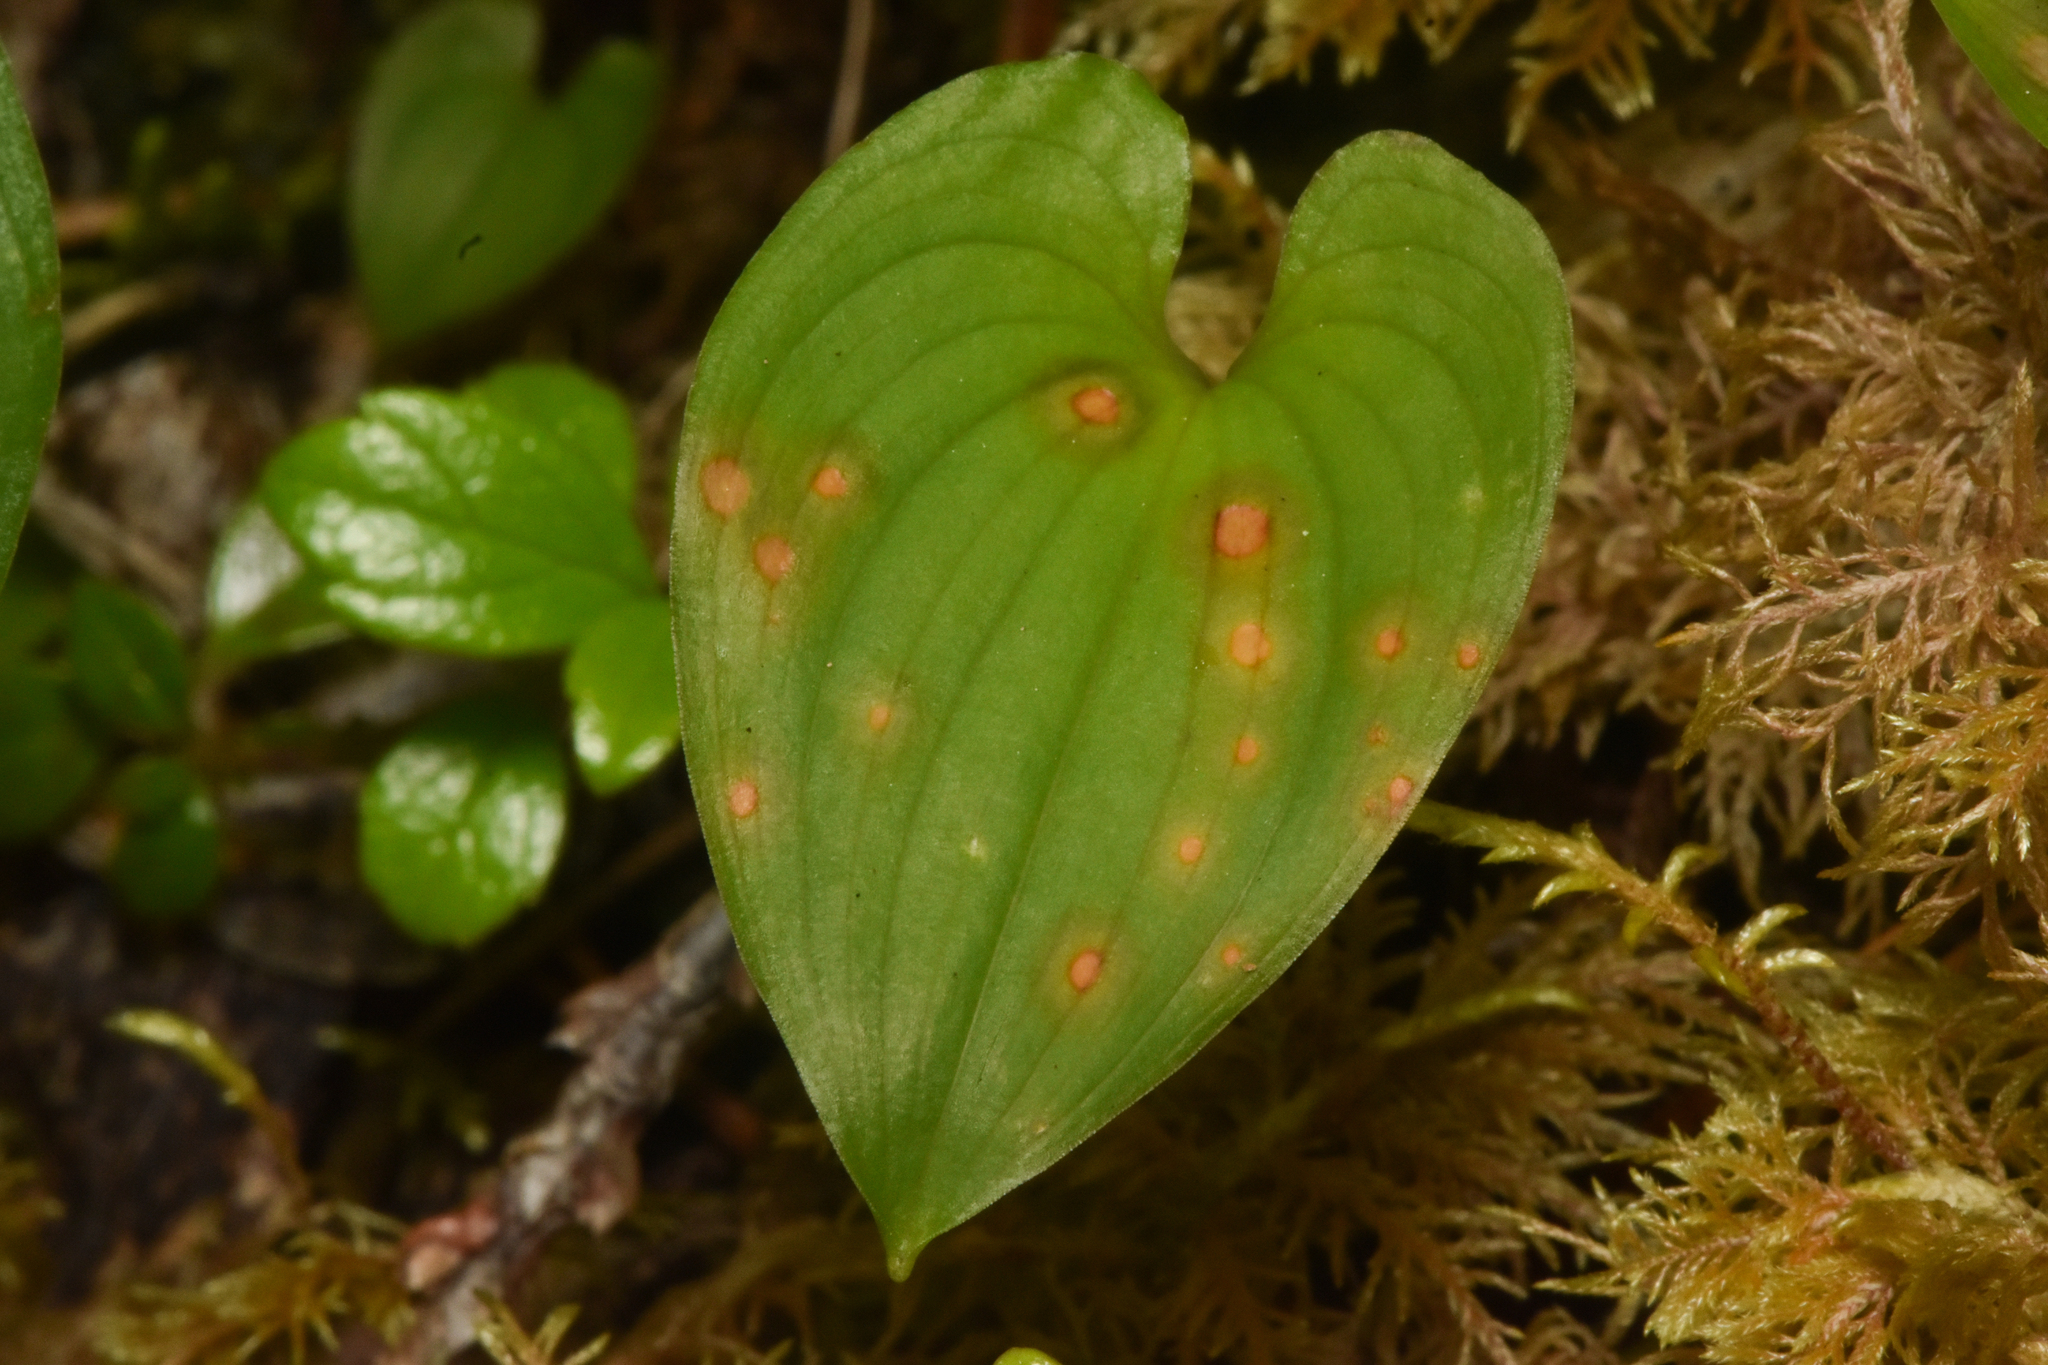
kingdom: Plantae
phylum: Tracheophyta
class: Liliopsida
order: Asparagales
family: Asparagaceae
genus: Maianthemum
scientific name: Maianthemum dilatatum
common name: False lily-of-the-valley
